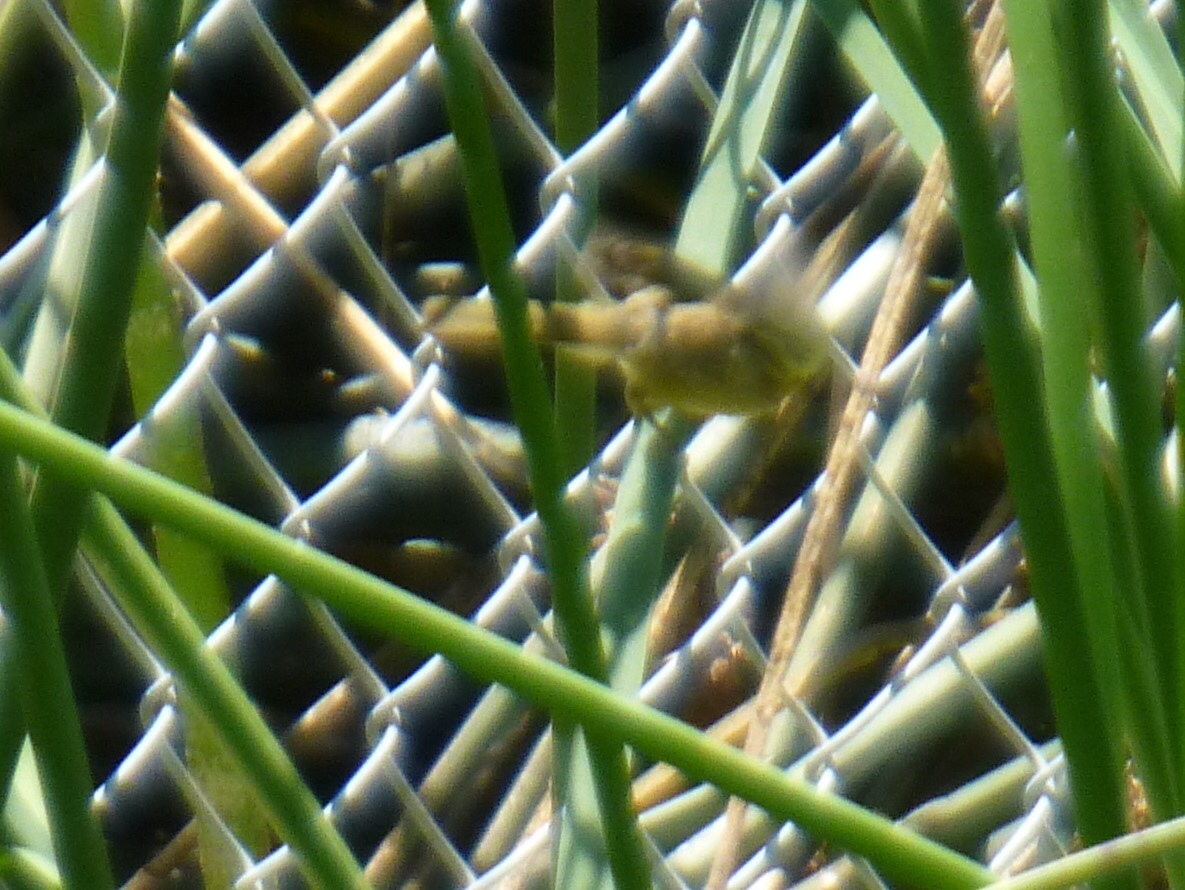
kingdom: Animalia
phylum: Chordata
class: Aves
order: Passeriformes
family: Parulidae
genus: Geothlypis
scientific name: Geothlypis trichas
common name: Common yellowthroat
